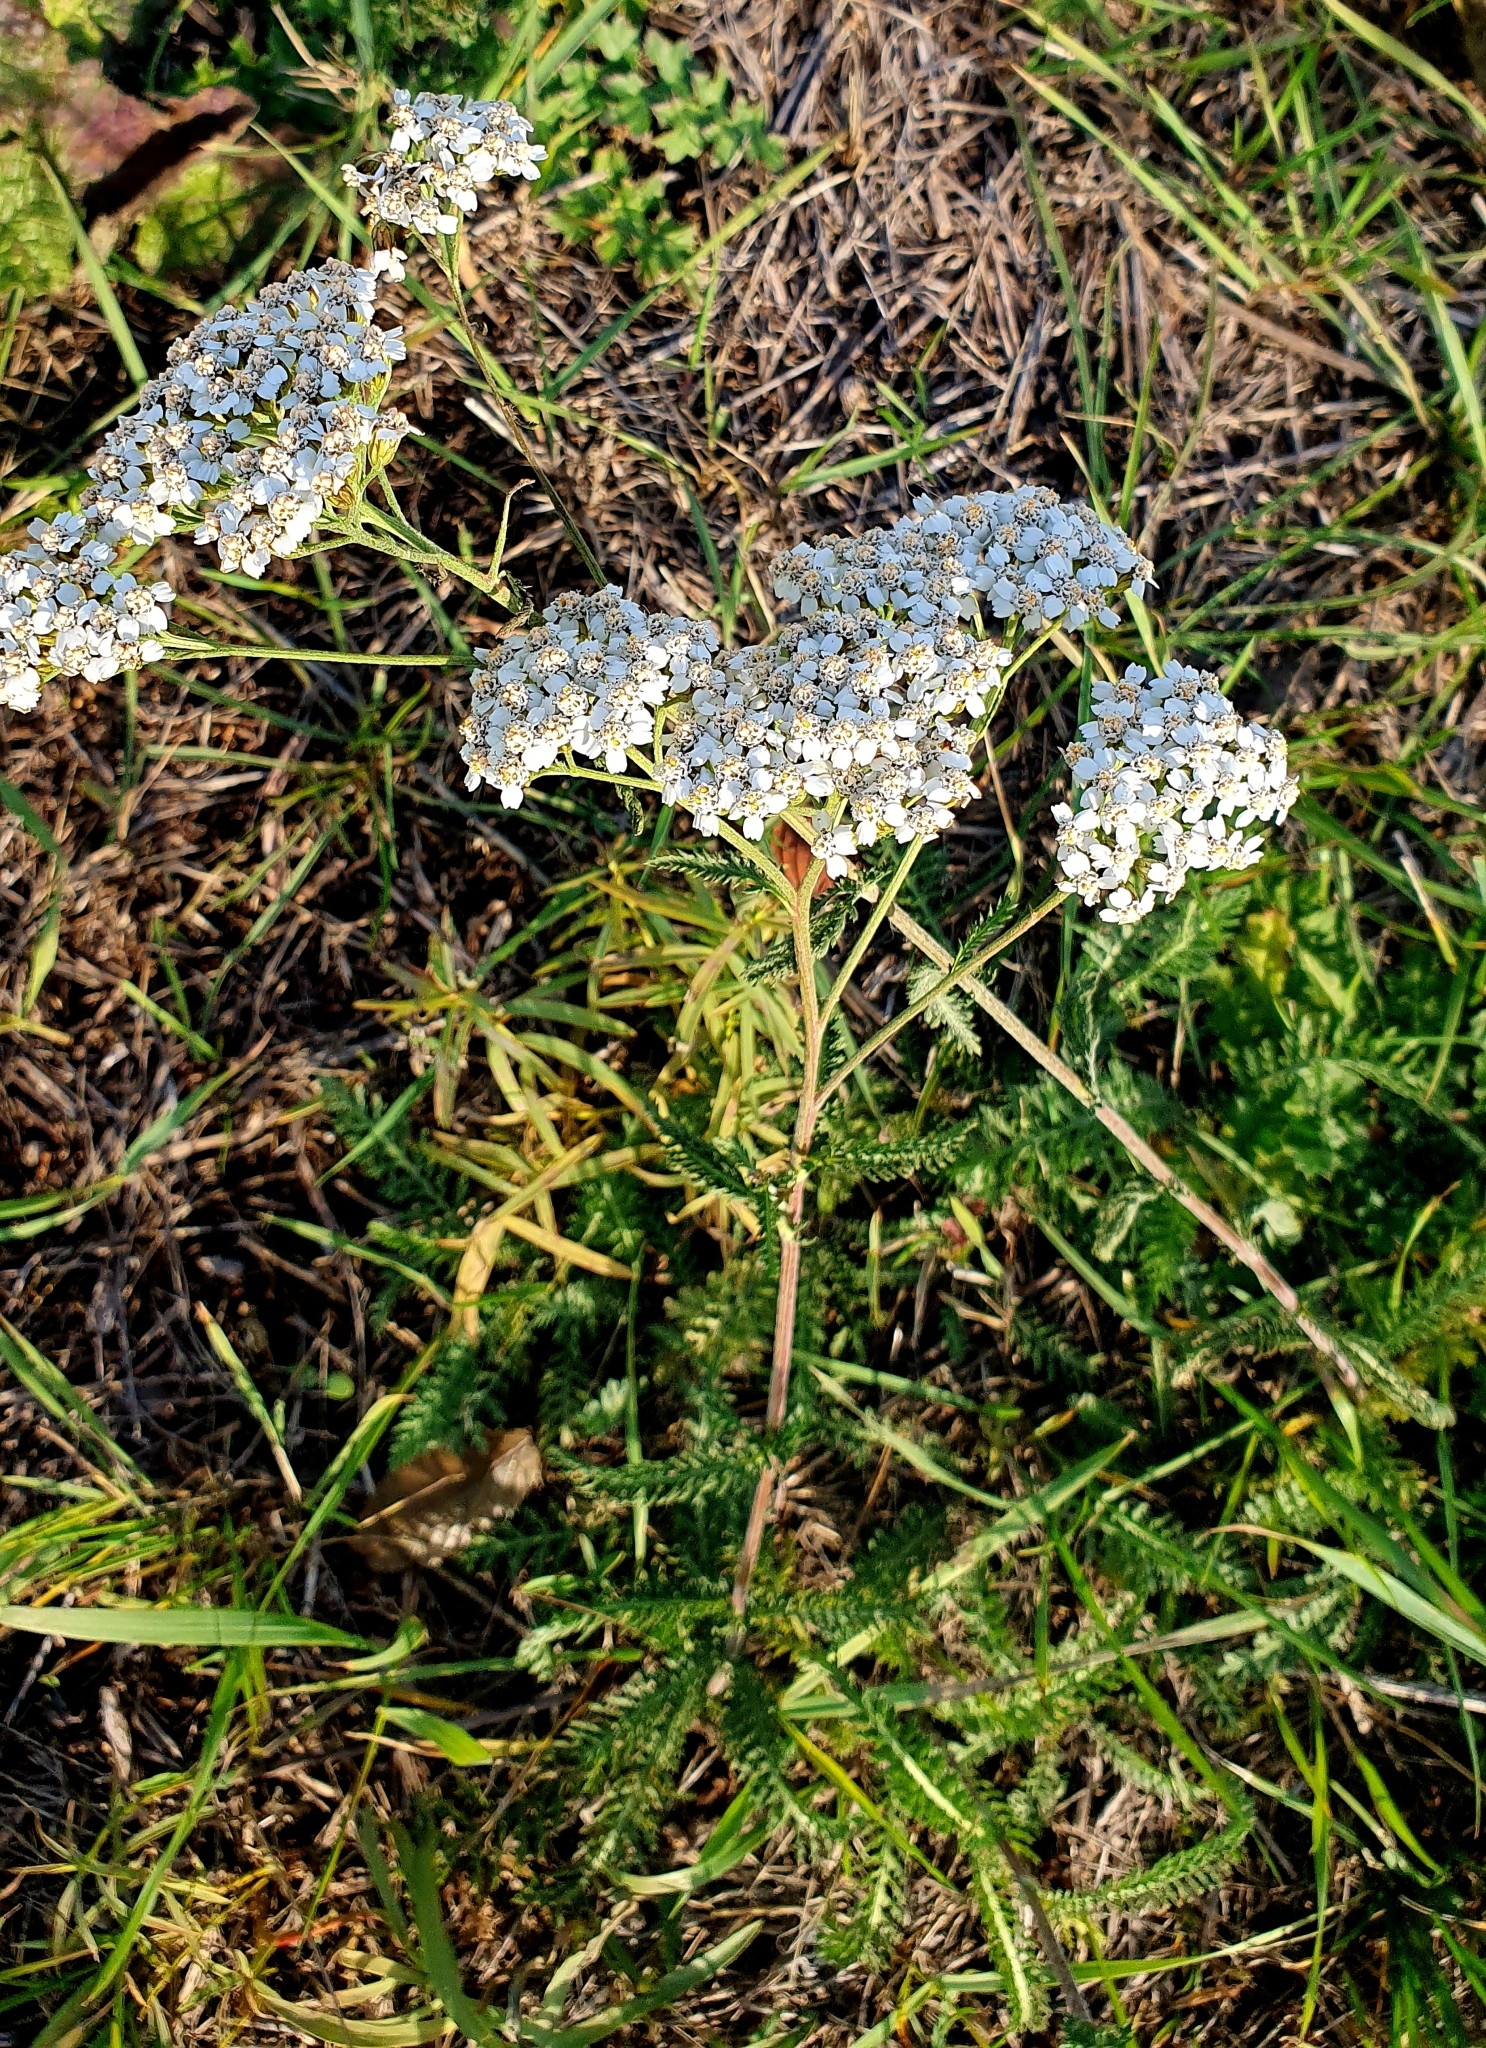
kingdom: Plantae
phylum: Tracheophyta
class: Magnoliopsida
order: Asterales
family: Asteraceae
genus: Achillea
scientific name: Achillea millefolium
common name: Yarrow
